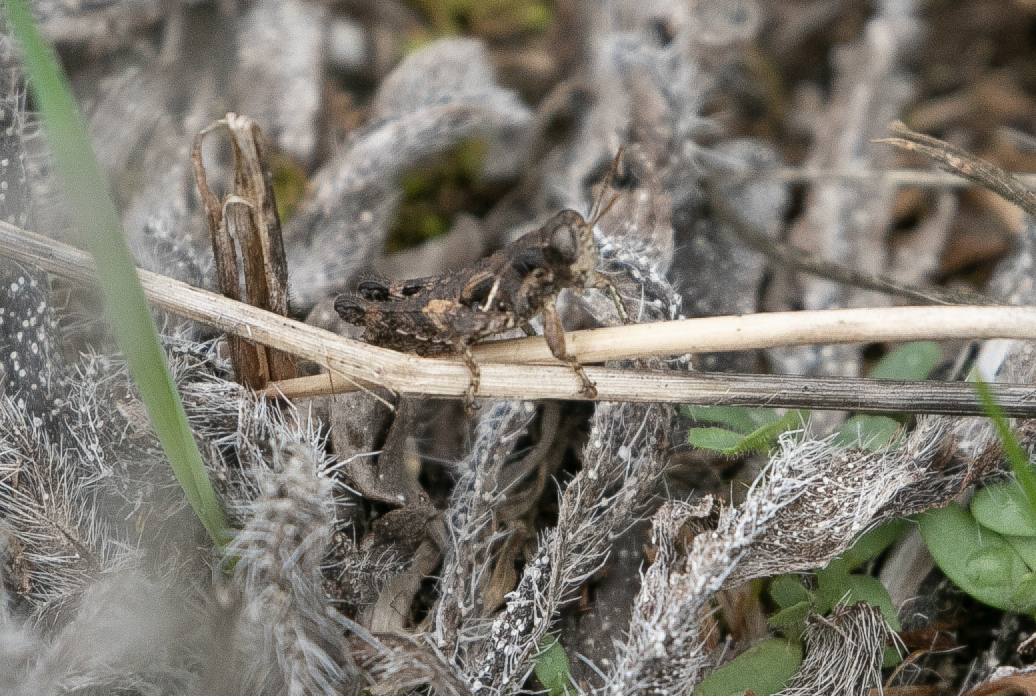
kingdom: Animalia
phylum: Arthropoda
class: Insecta
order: Orthoptera
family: Acrididae
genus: Pezotettix
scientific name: Pezotettix giornae
